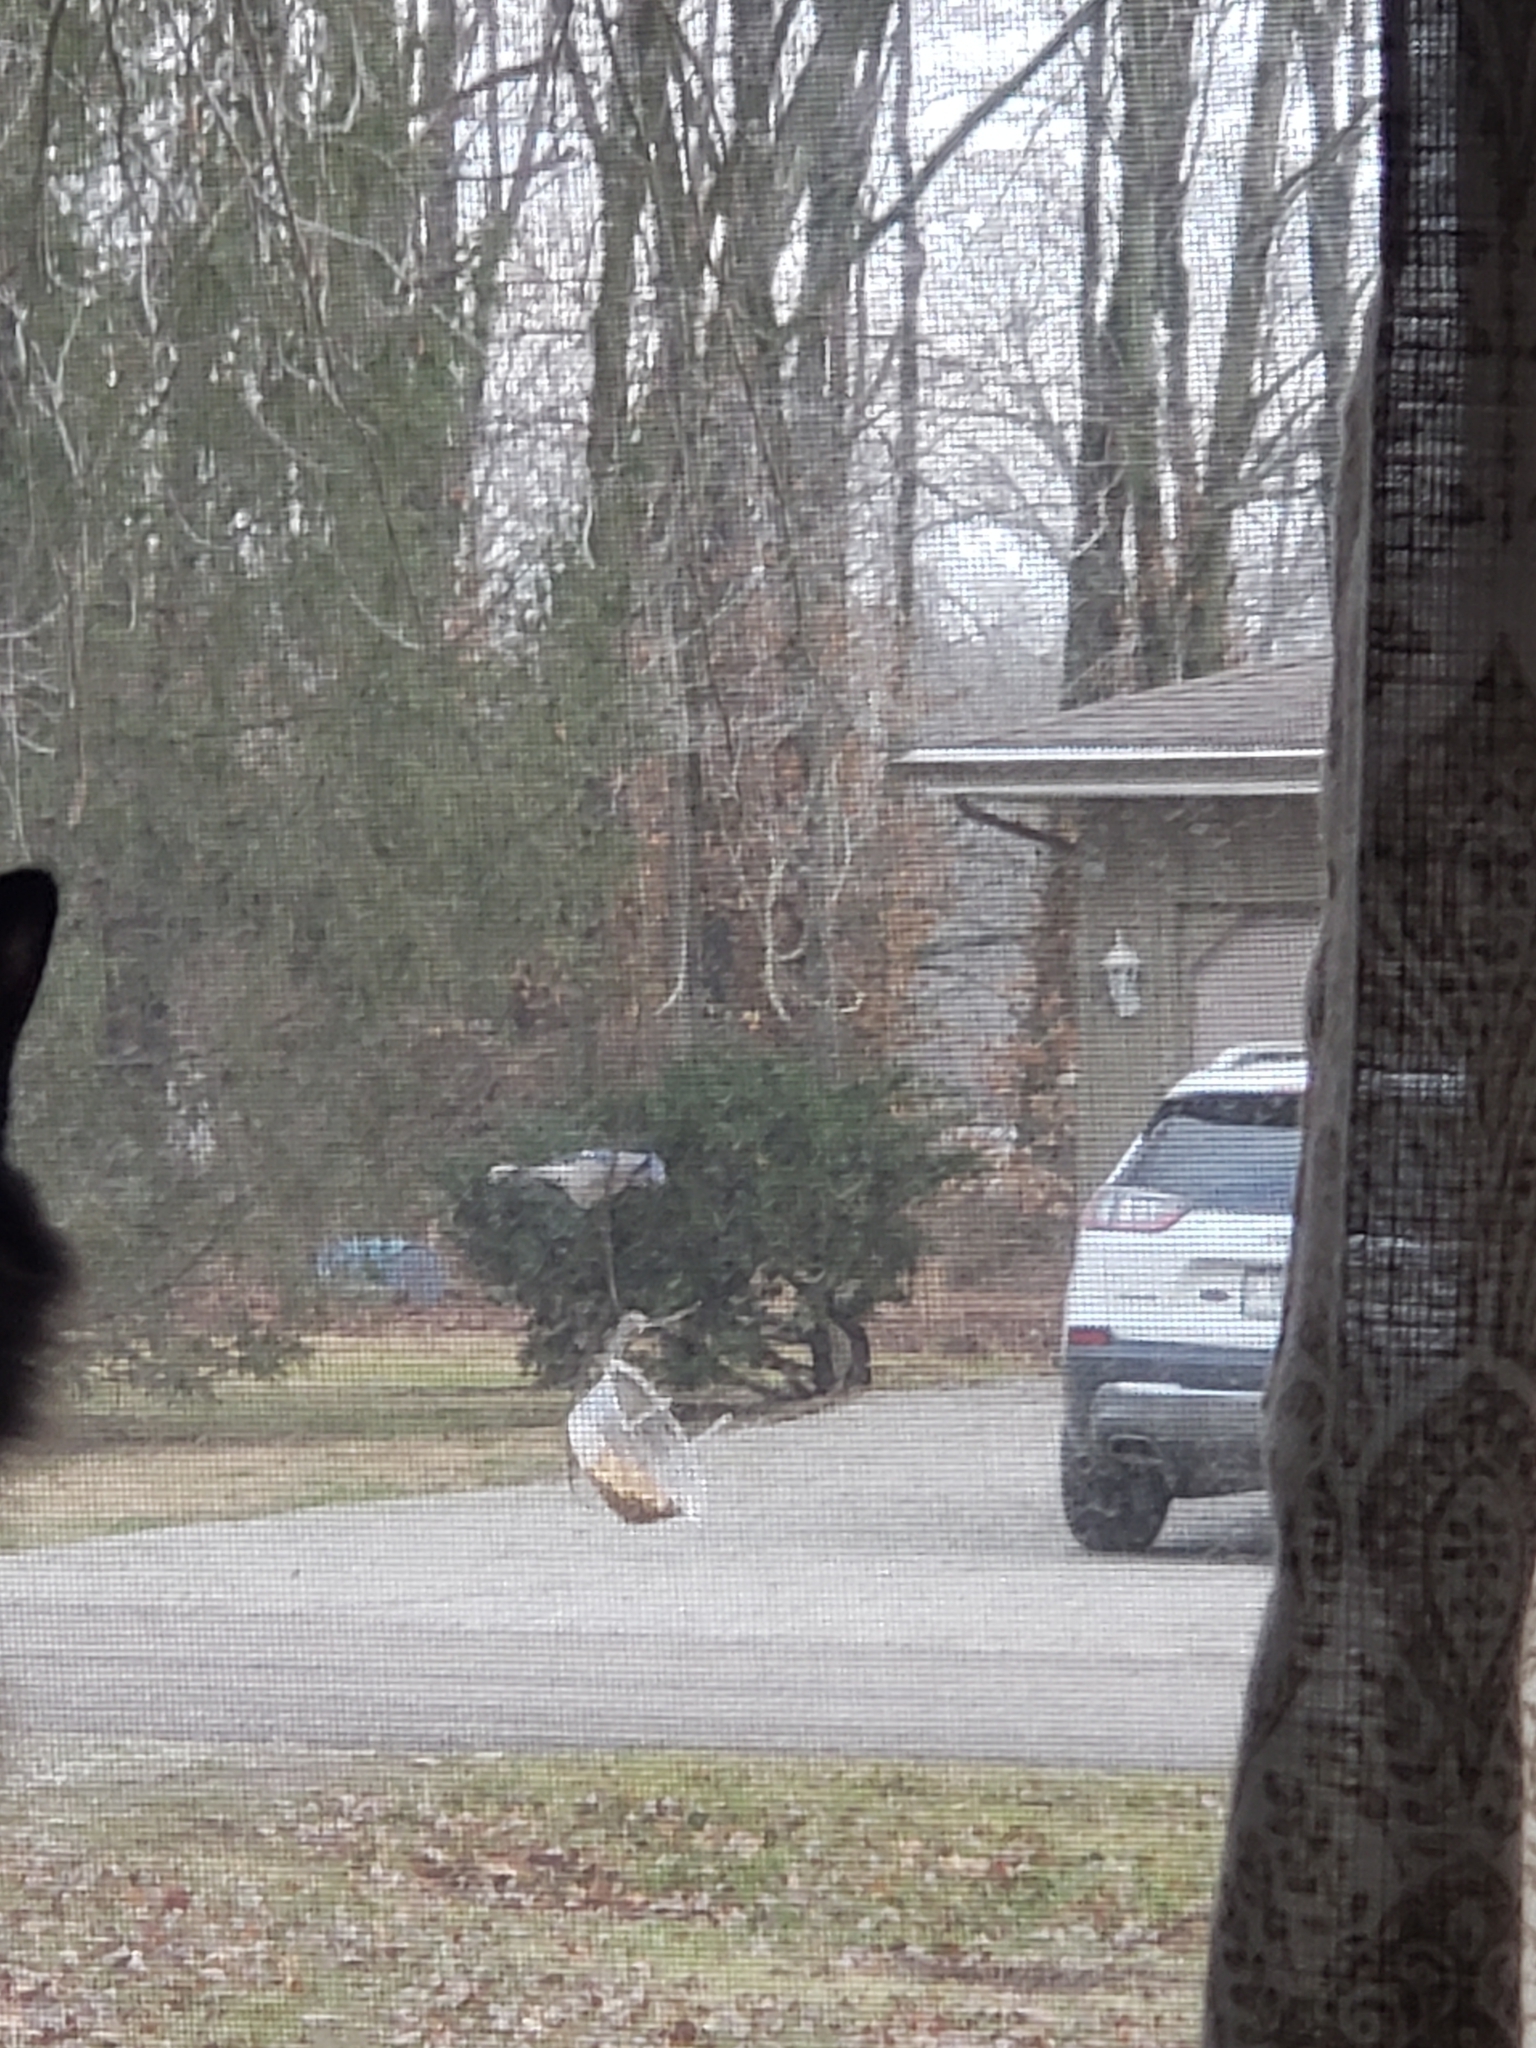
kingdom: Animalia
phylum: Chordata
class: Aves
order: Passeriformes
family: Corvidae
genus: Cyanocitta
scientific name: Cyanocitta cristata
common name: Blue jay
